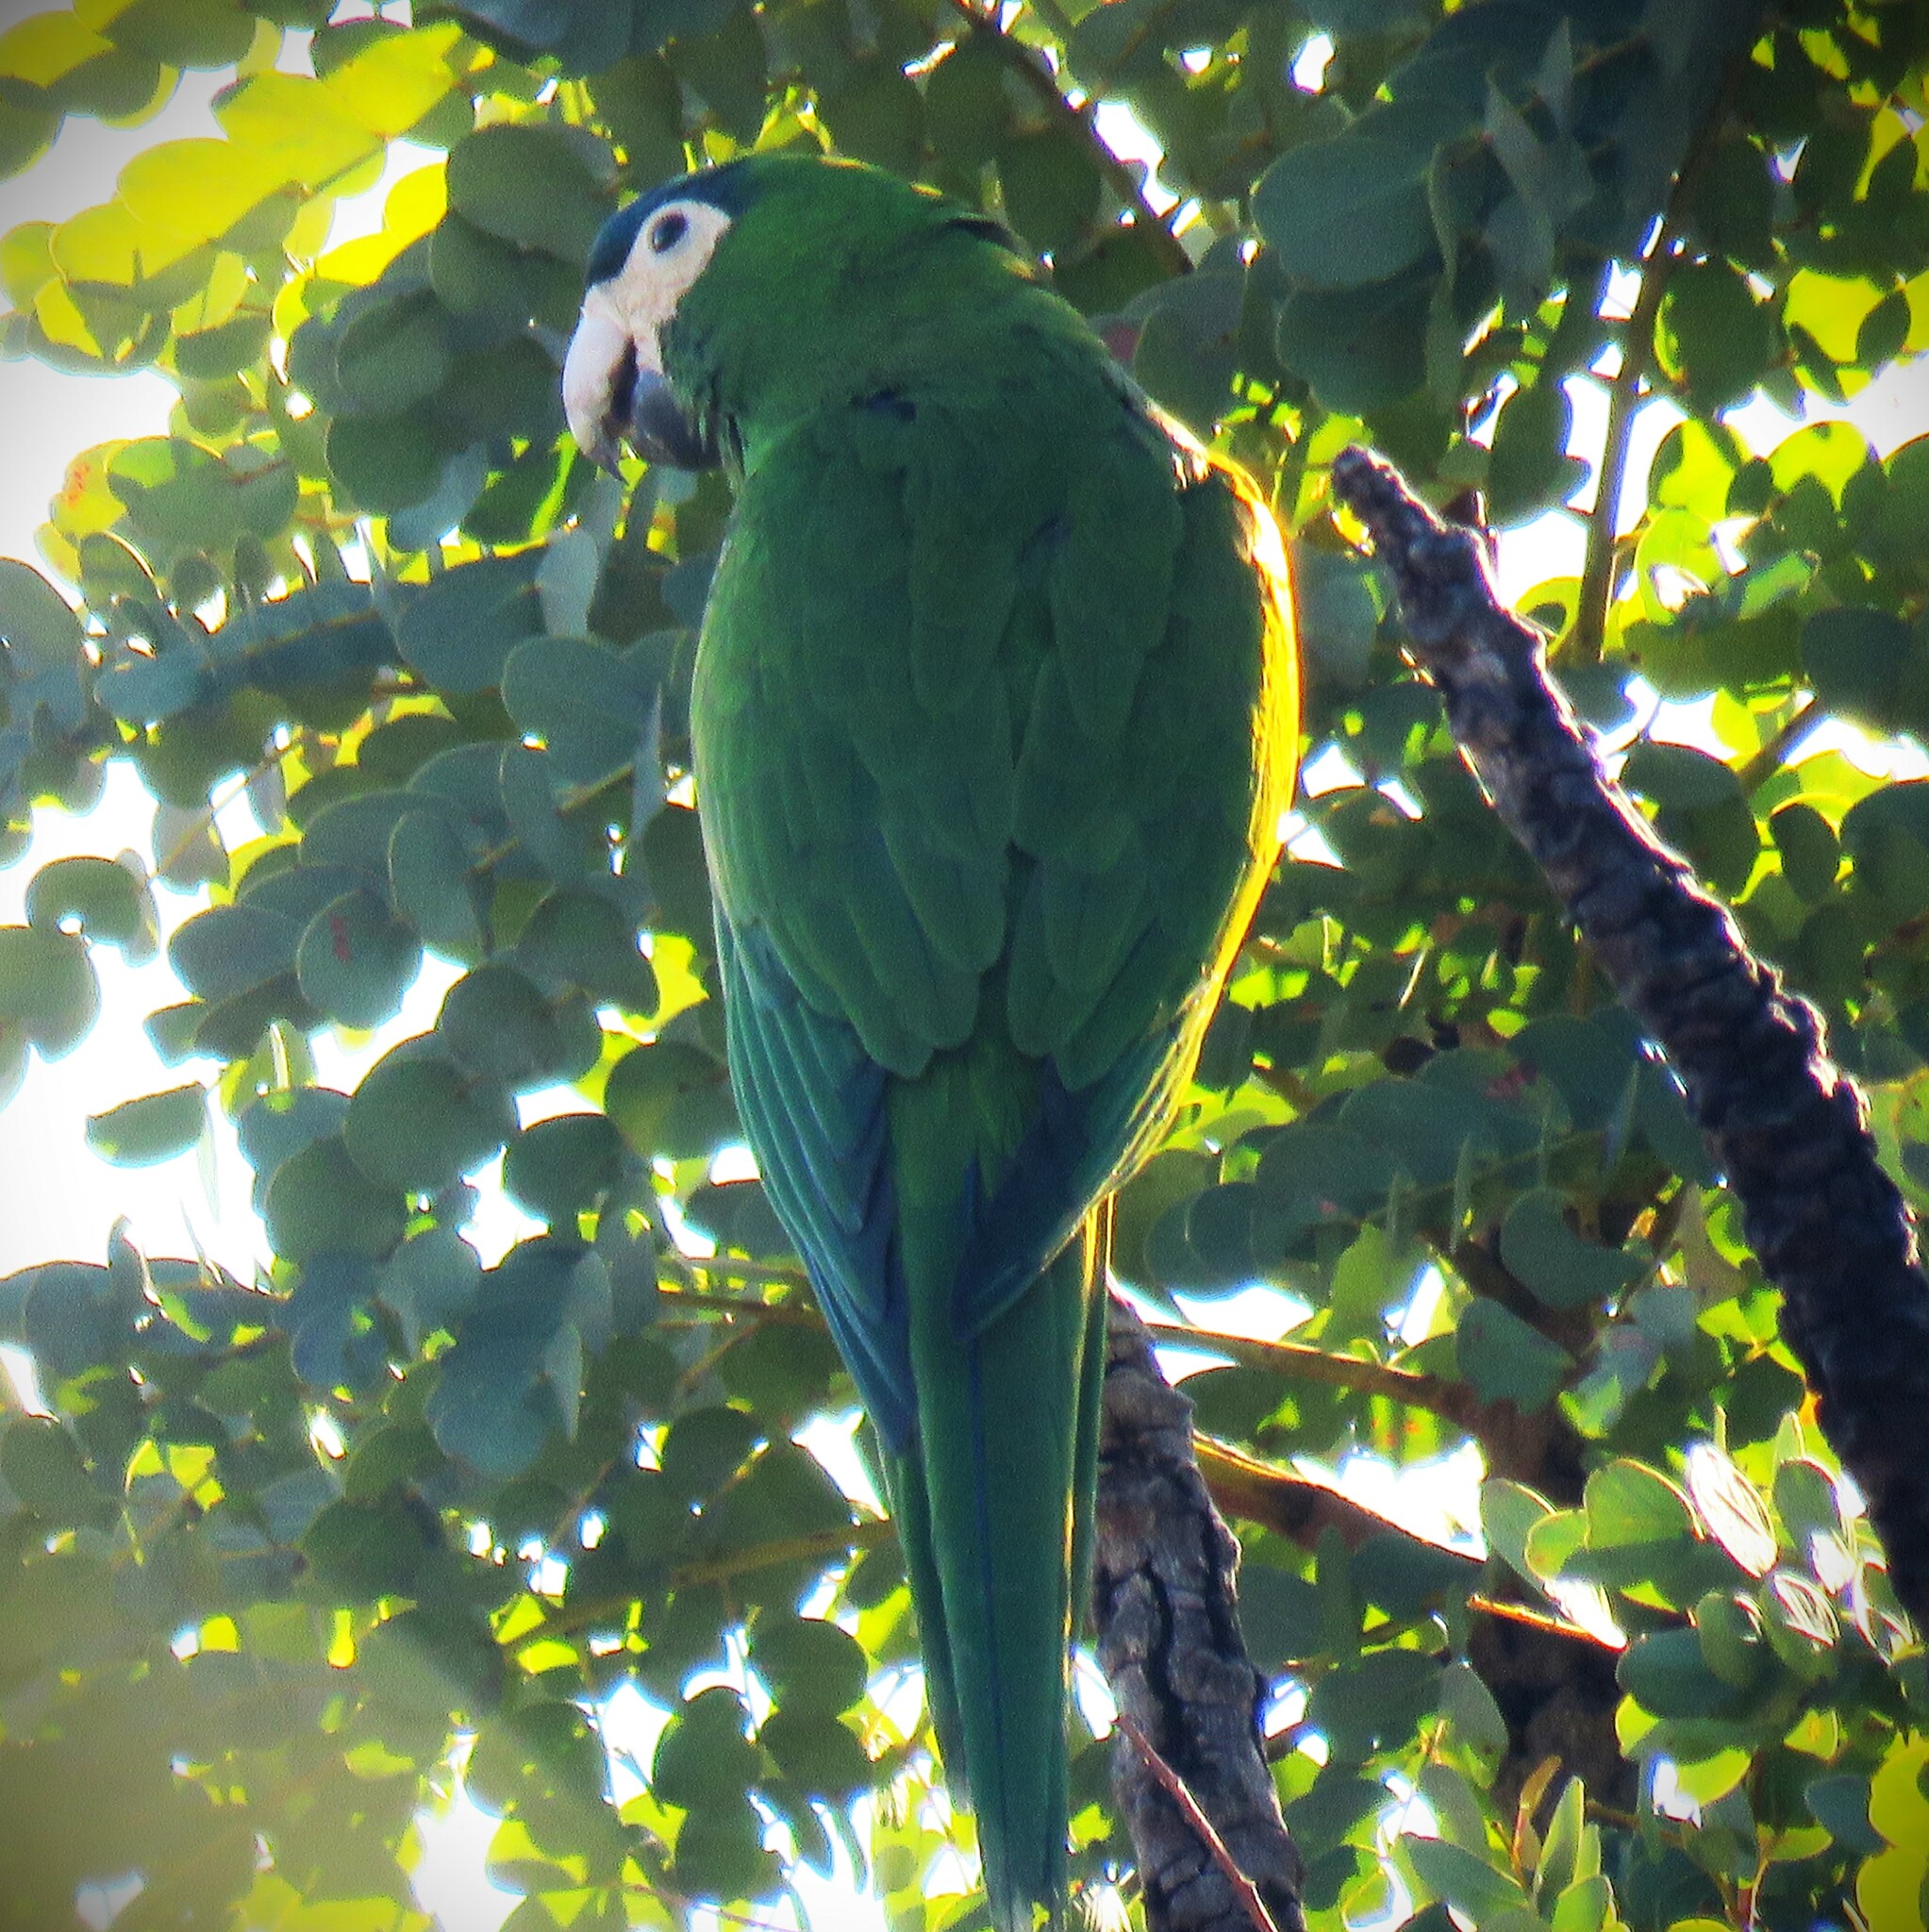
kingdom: Animalia
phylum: Chordata
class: Aves
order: Psittaciformes
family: Psittacidae
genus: Diopsittaca
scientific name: Diopsittaca nobilis
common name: Red-shouldered macaw
